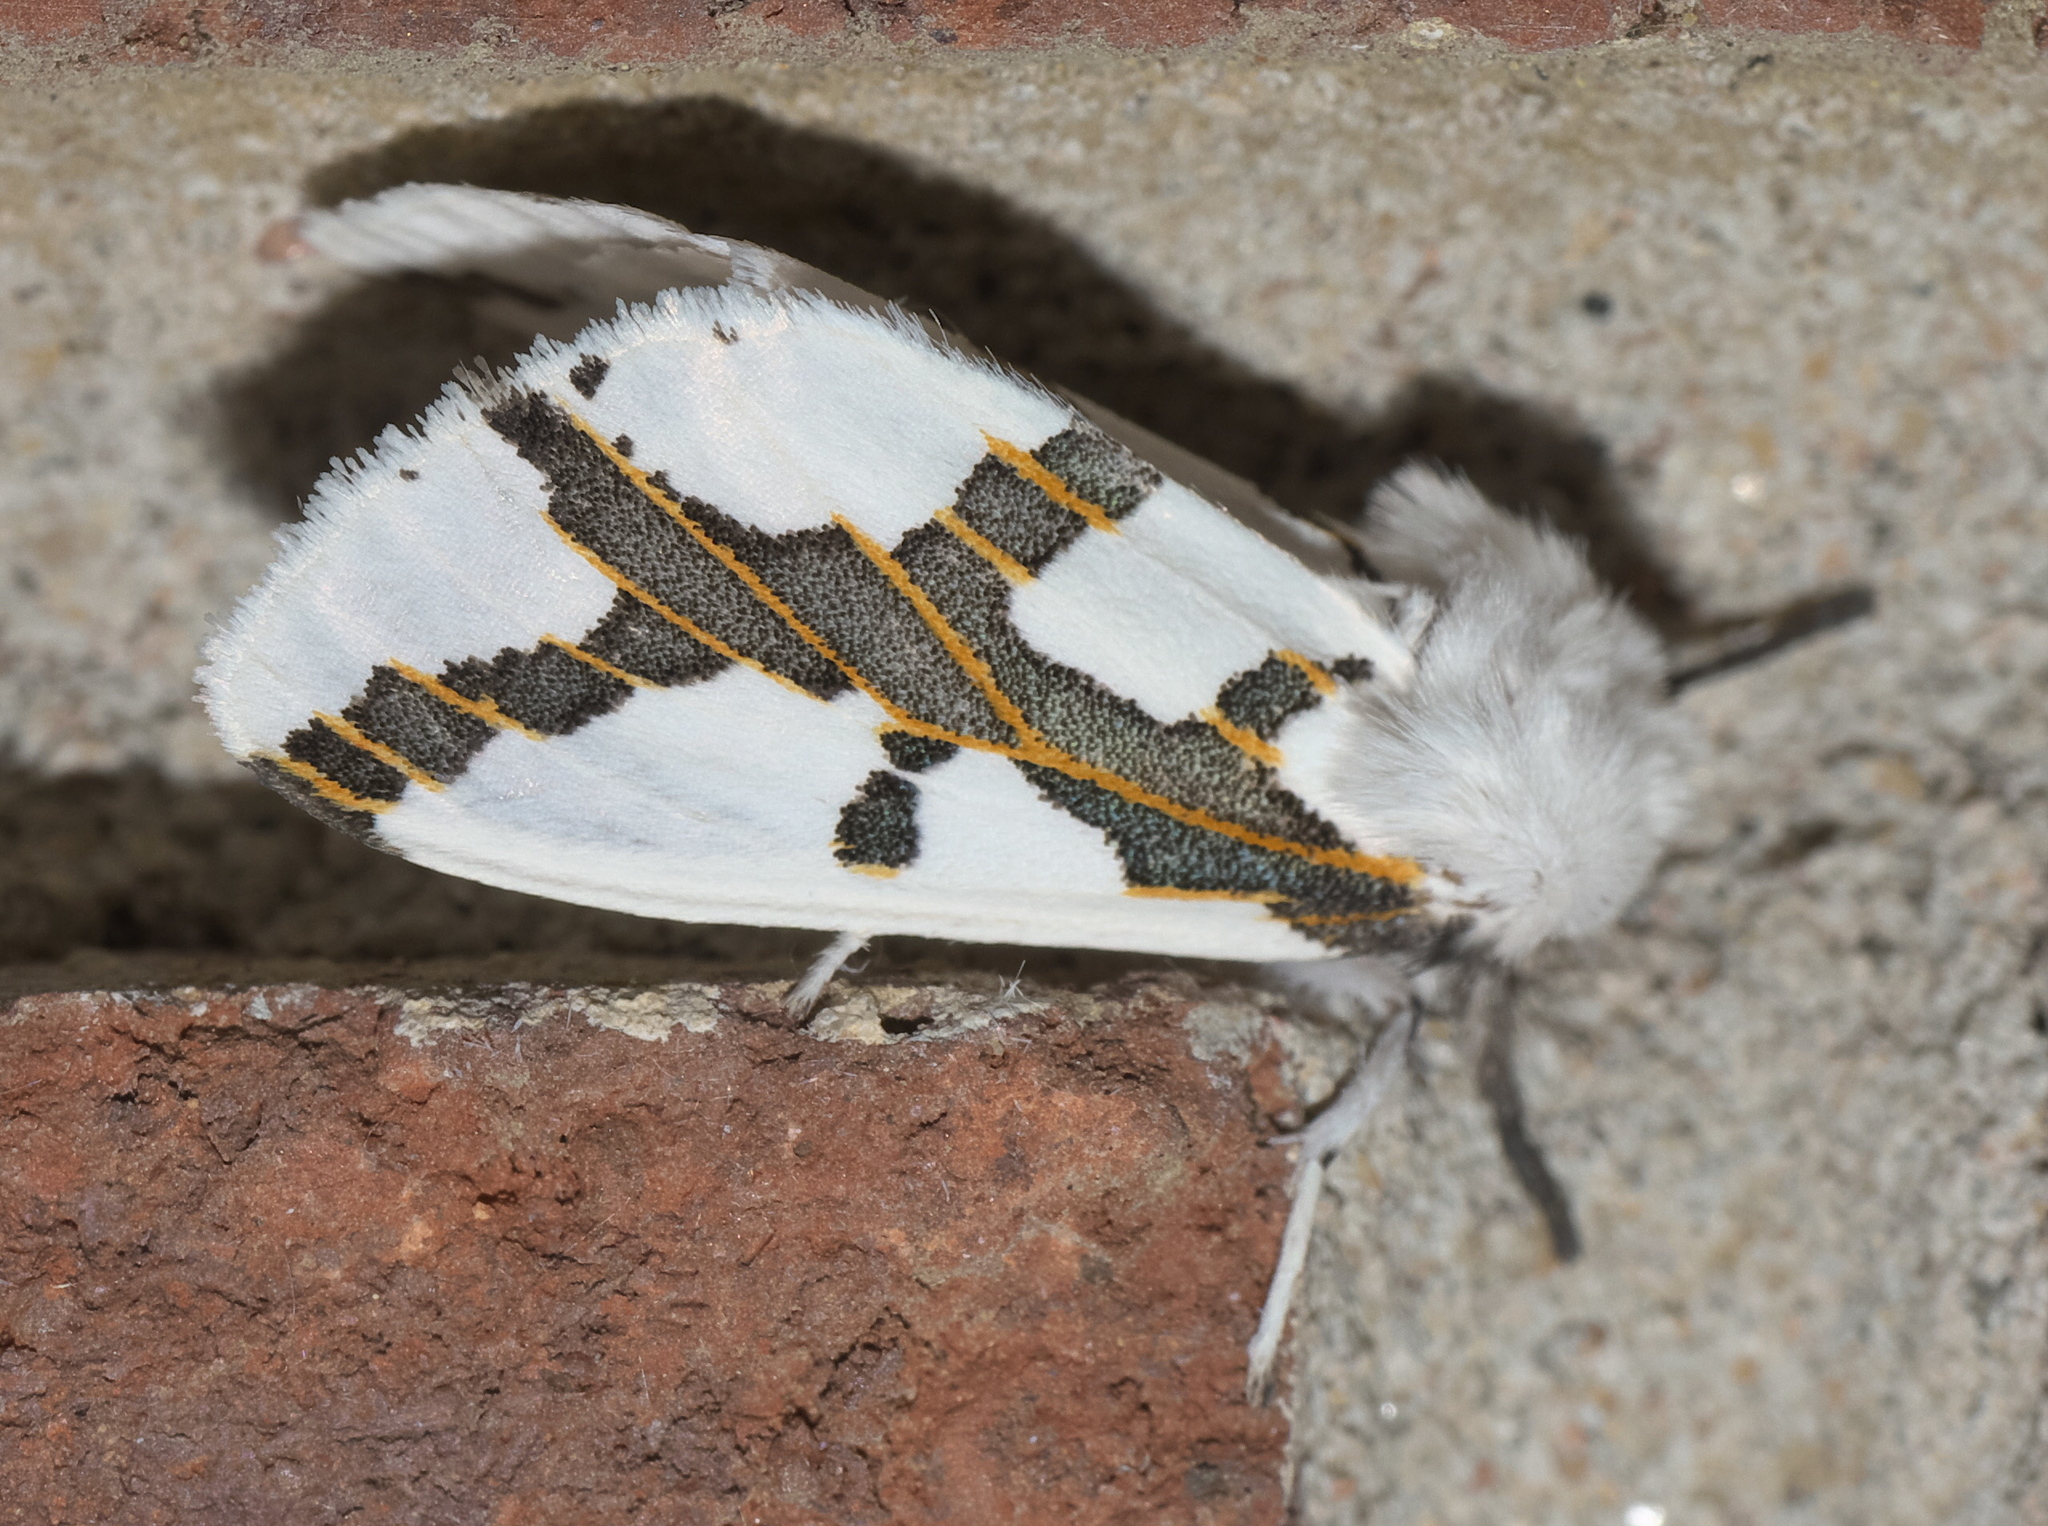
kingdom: Animalia
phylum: Arthropoda
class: Insecta
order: Lepidoptera
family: Erebidae
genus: Euerythra
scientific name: Euerythra phasma
